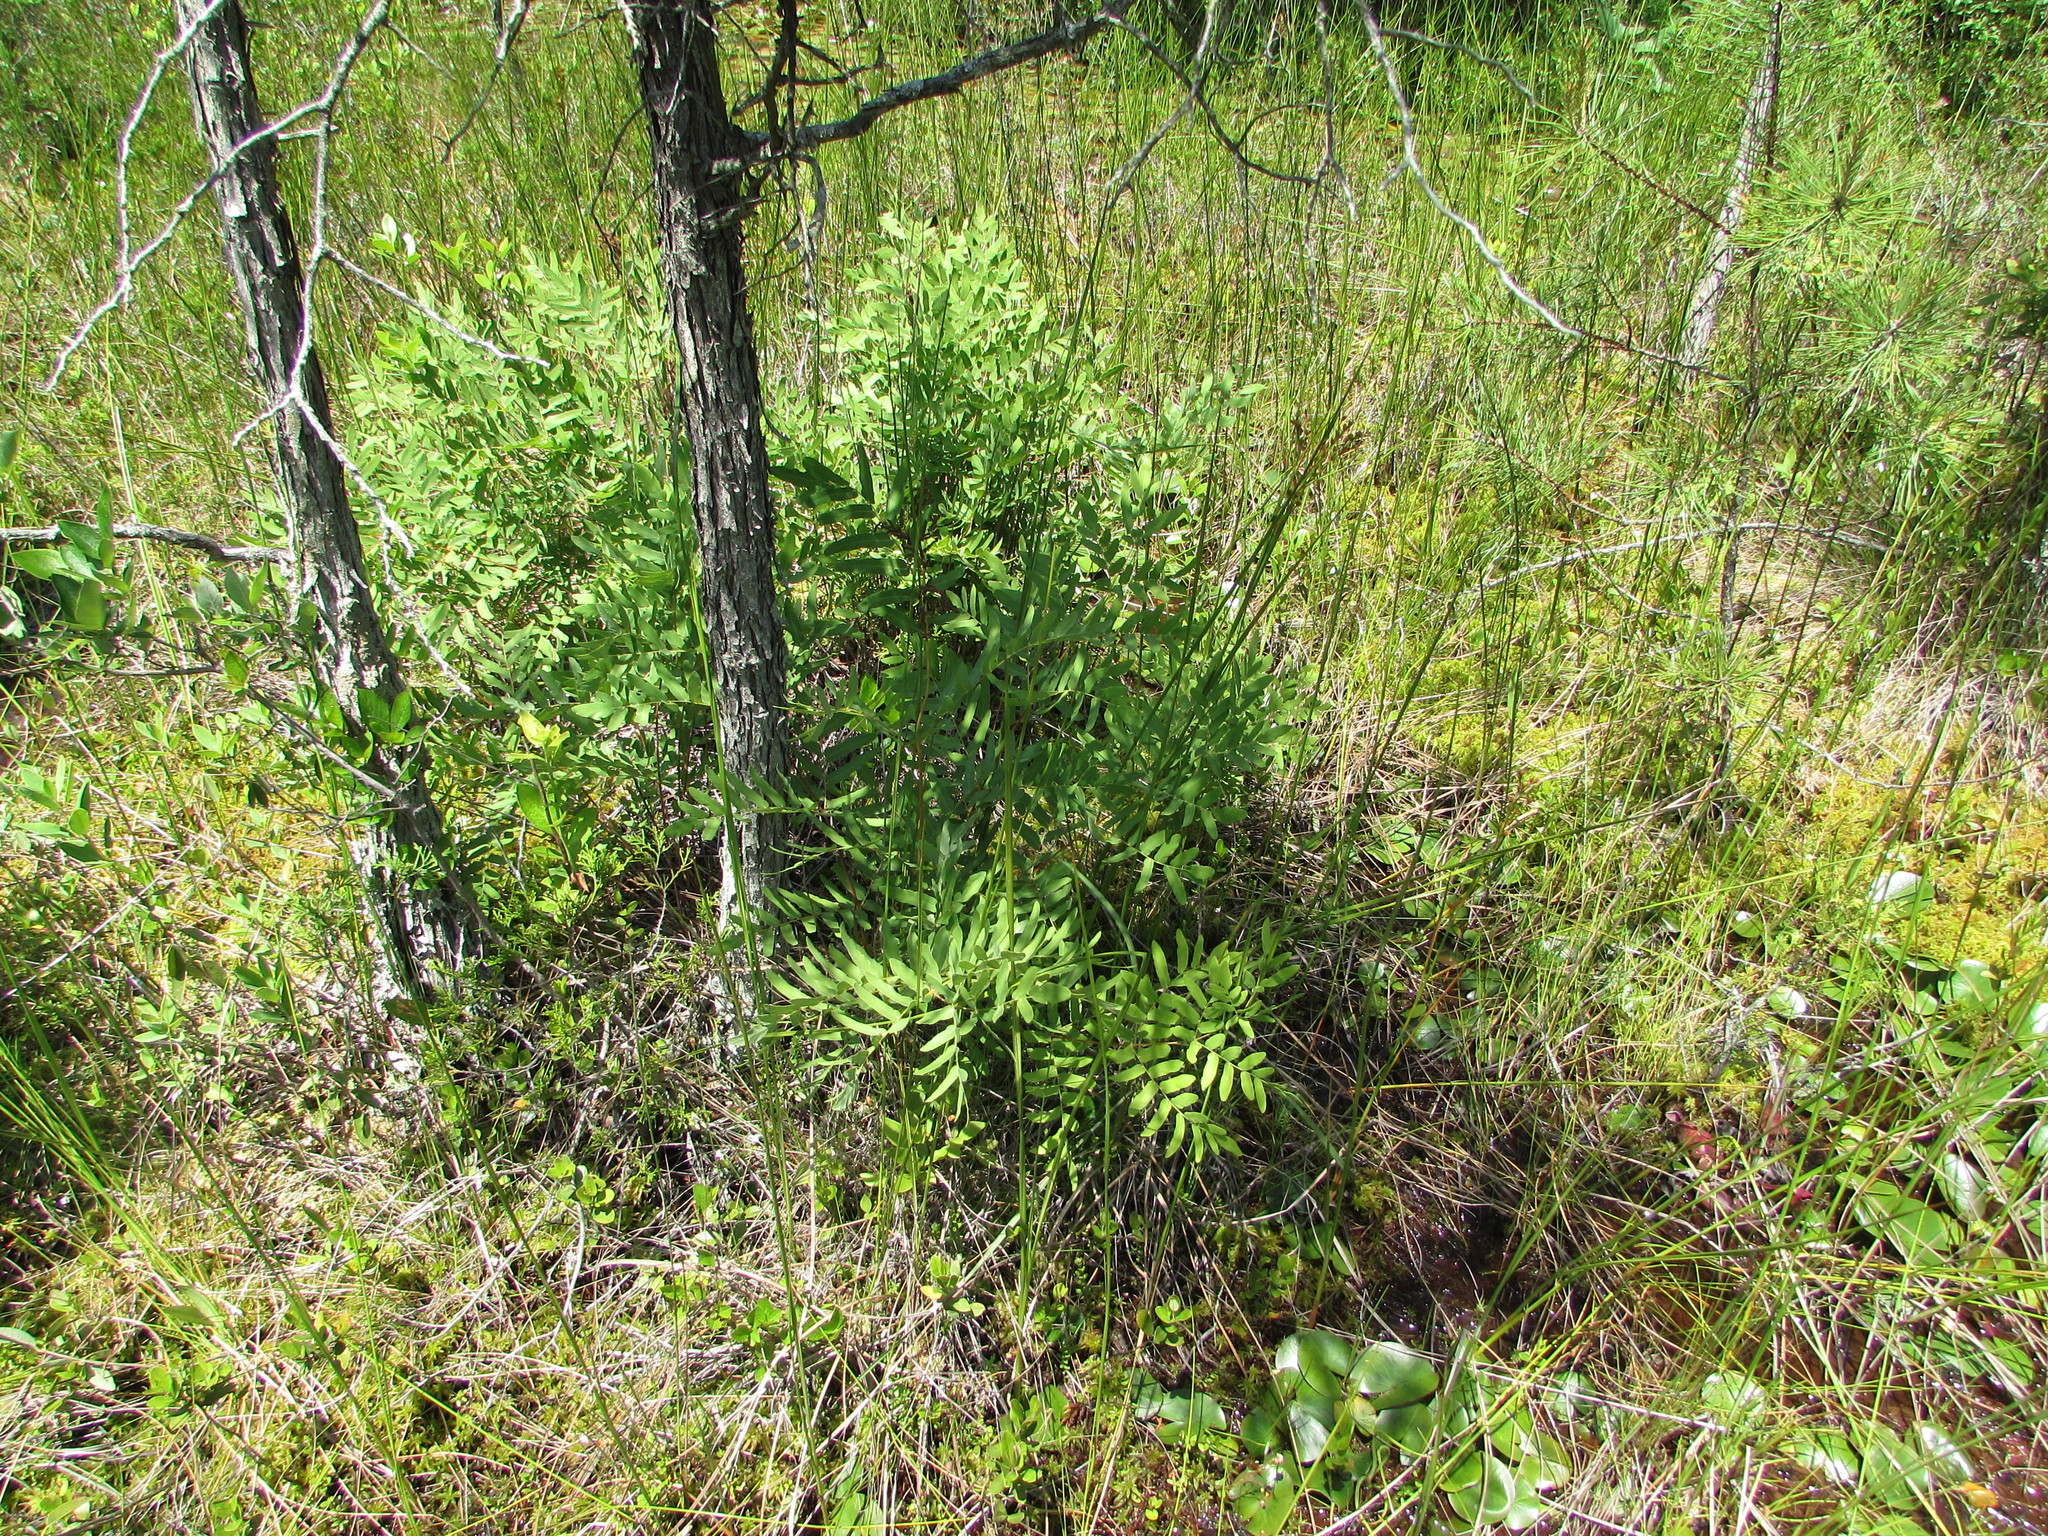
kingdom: Plantae
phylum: Tracheophyta
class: Polypodiopsida
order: Osmundales
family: Osmundaceae
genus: Osmunda
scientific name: Osmunda spectabilis
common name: American royal fern
